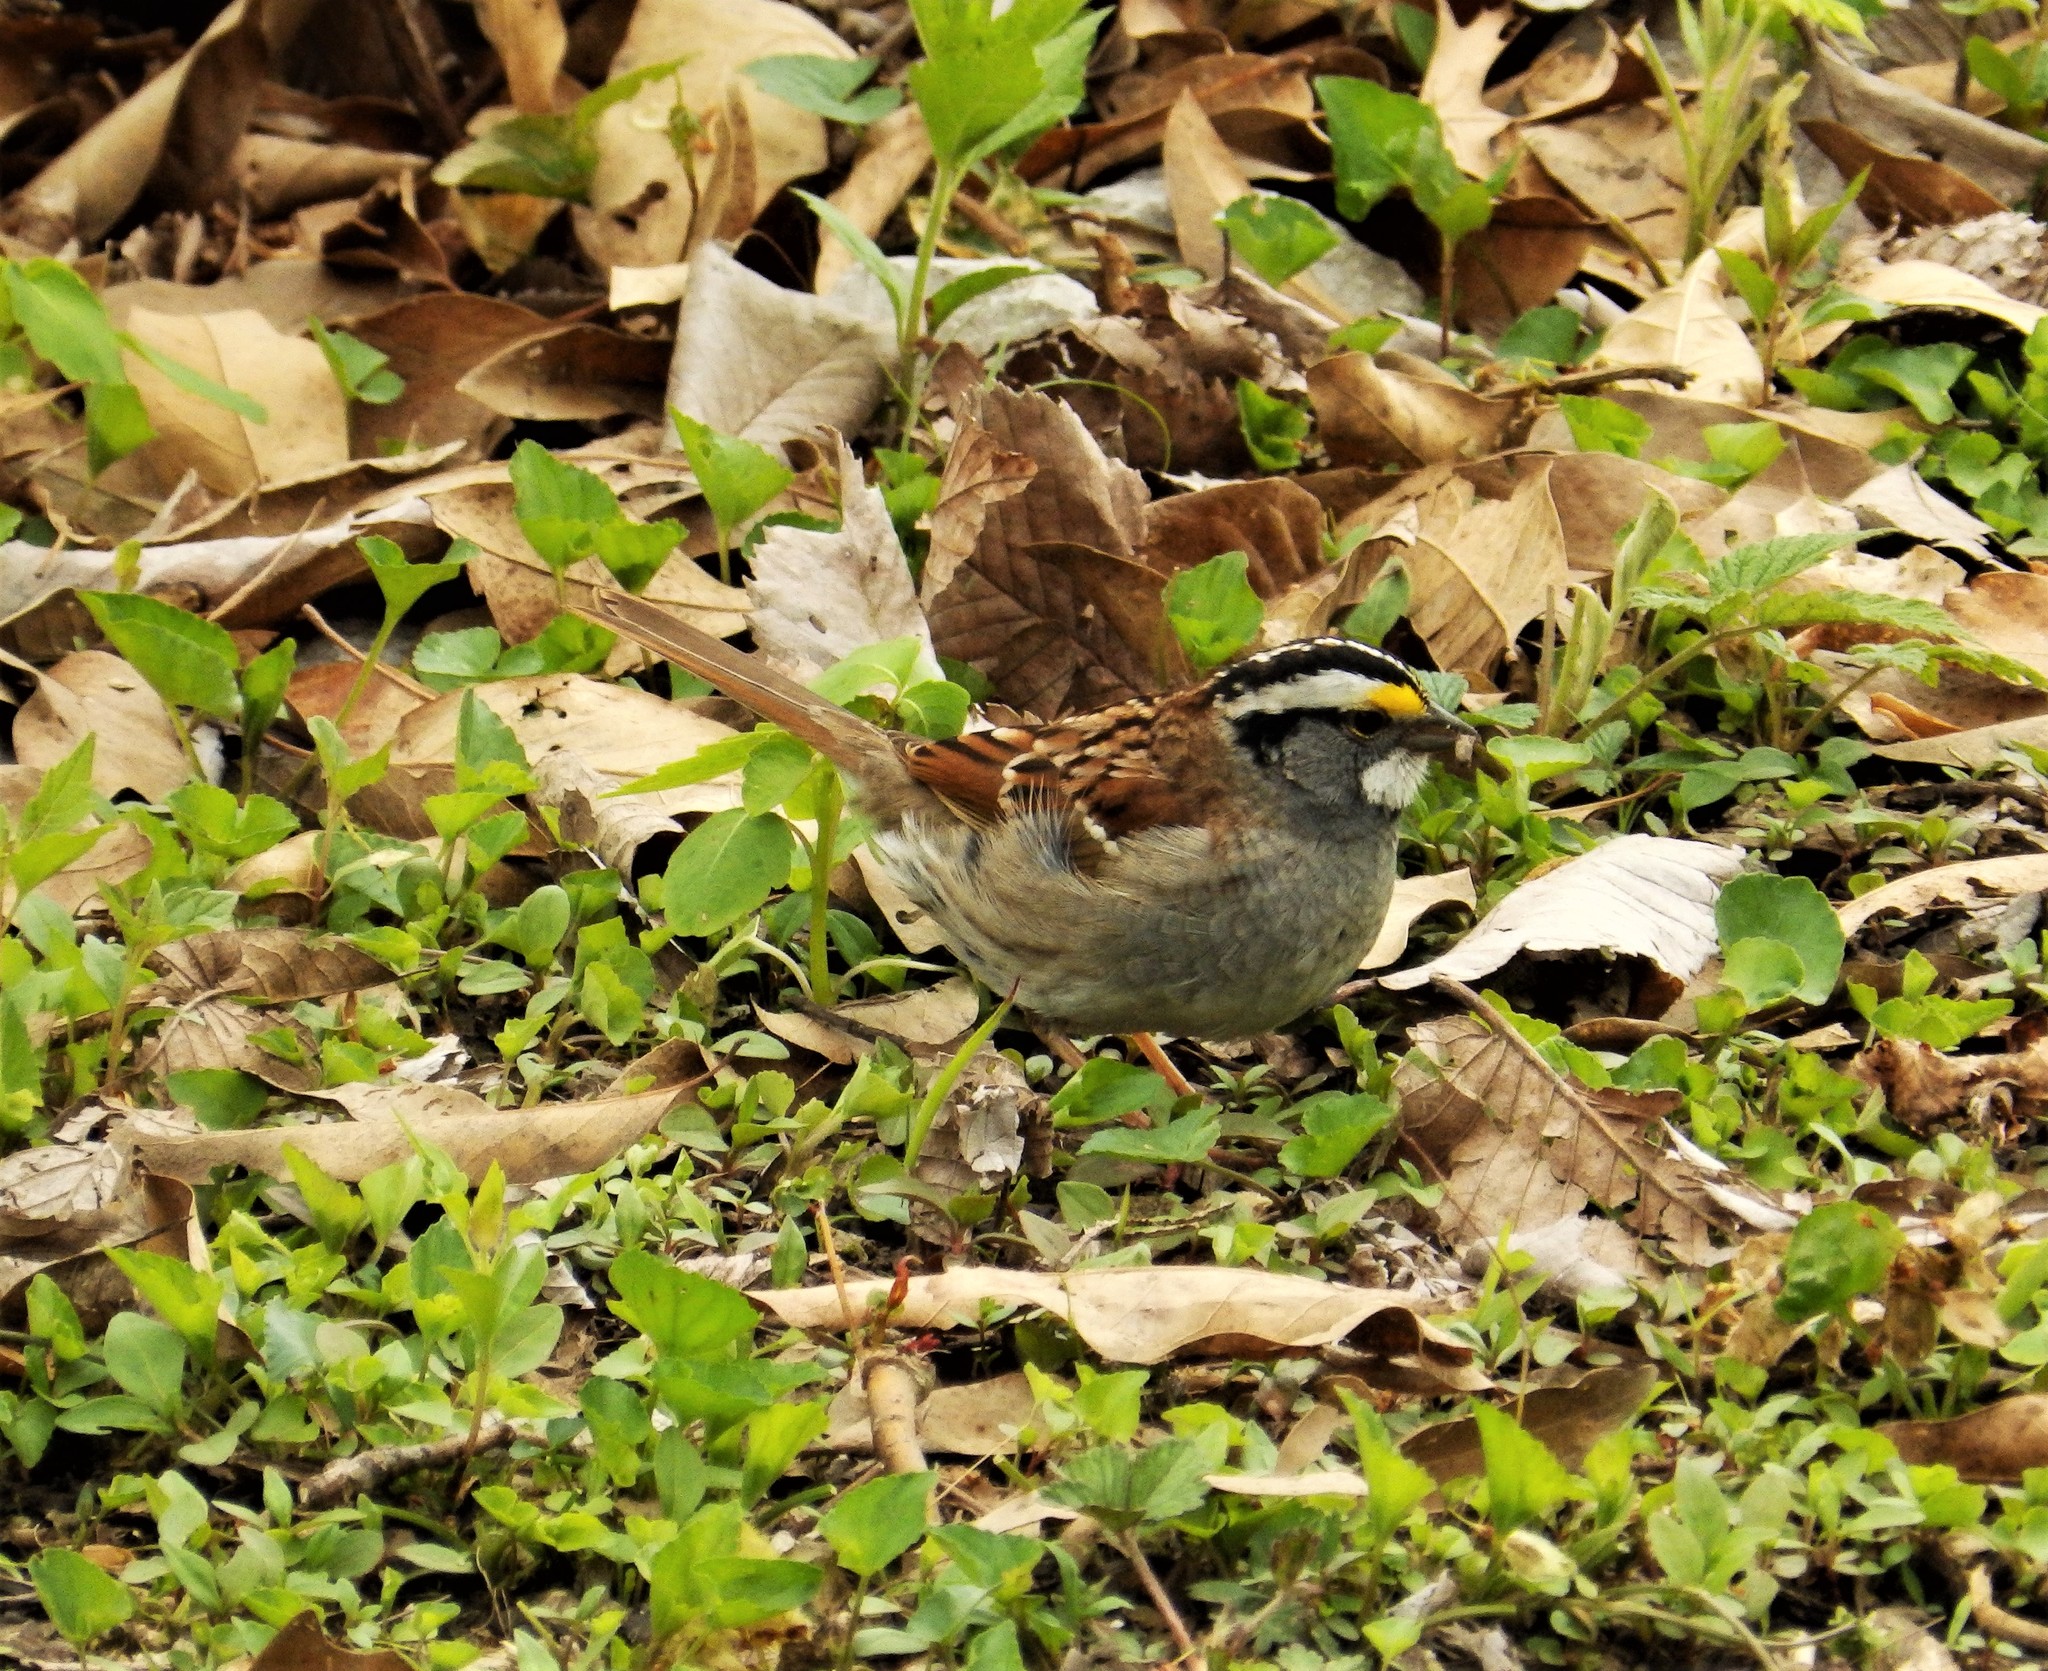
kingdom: Animalia
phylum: Chordata
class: Aves
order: Passeriformes
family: Passerellidae
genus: Zonotrichia
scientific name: Zonotrichia albicollis
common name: White-throated sparrow
